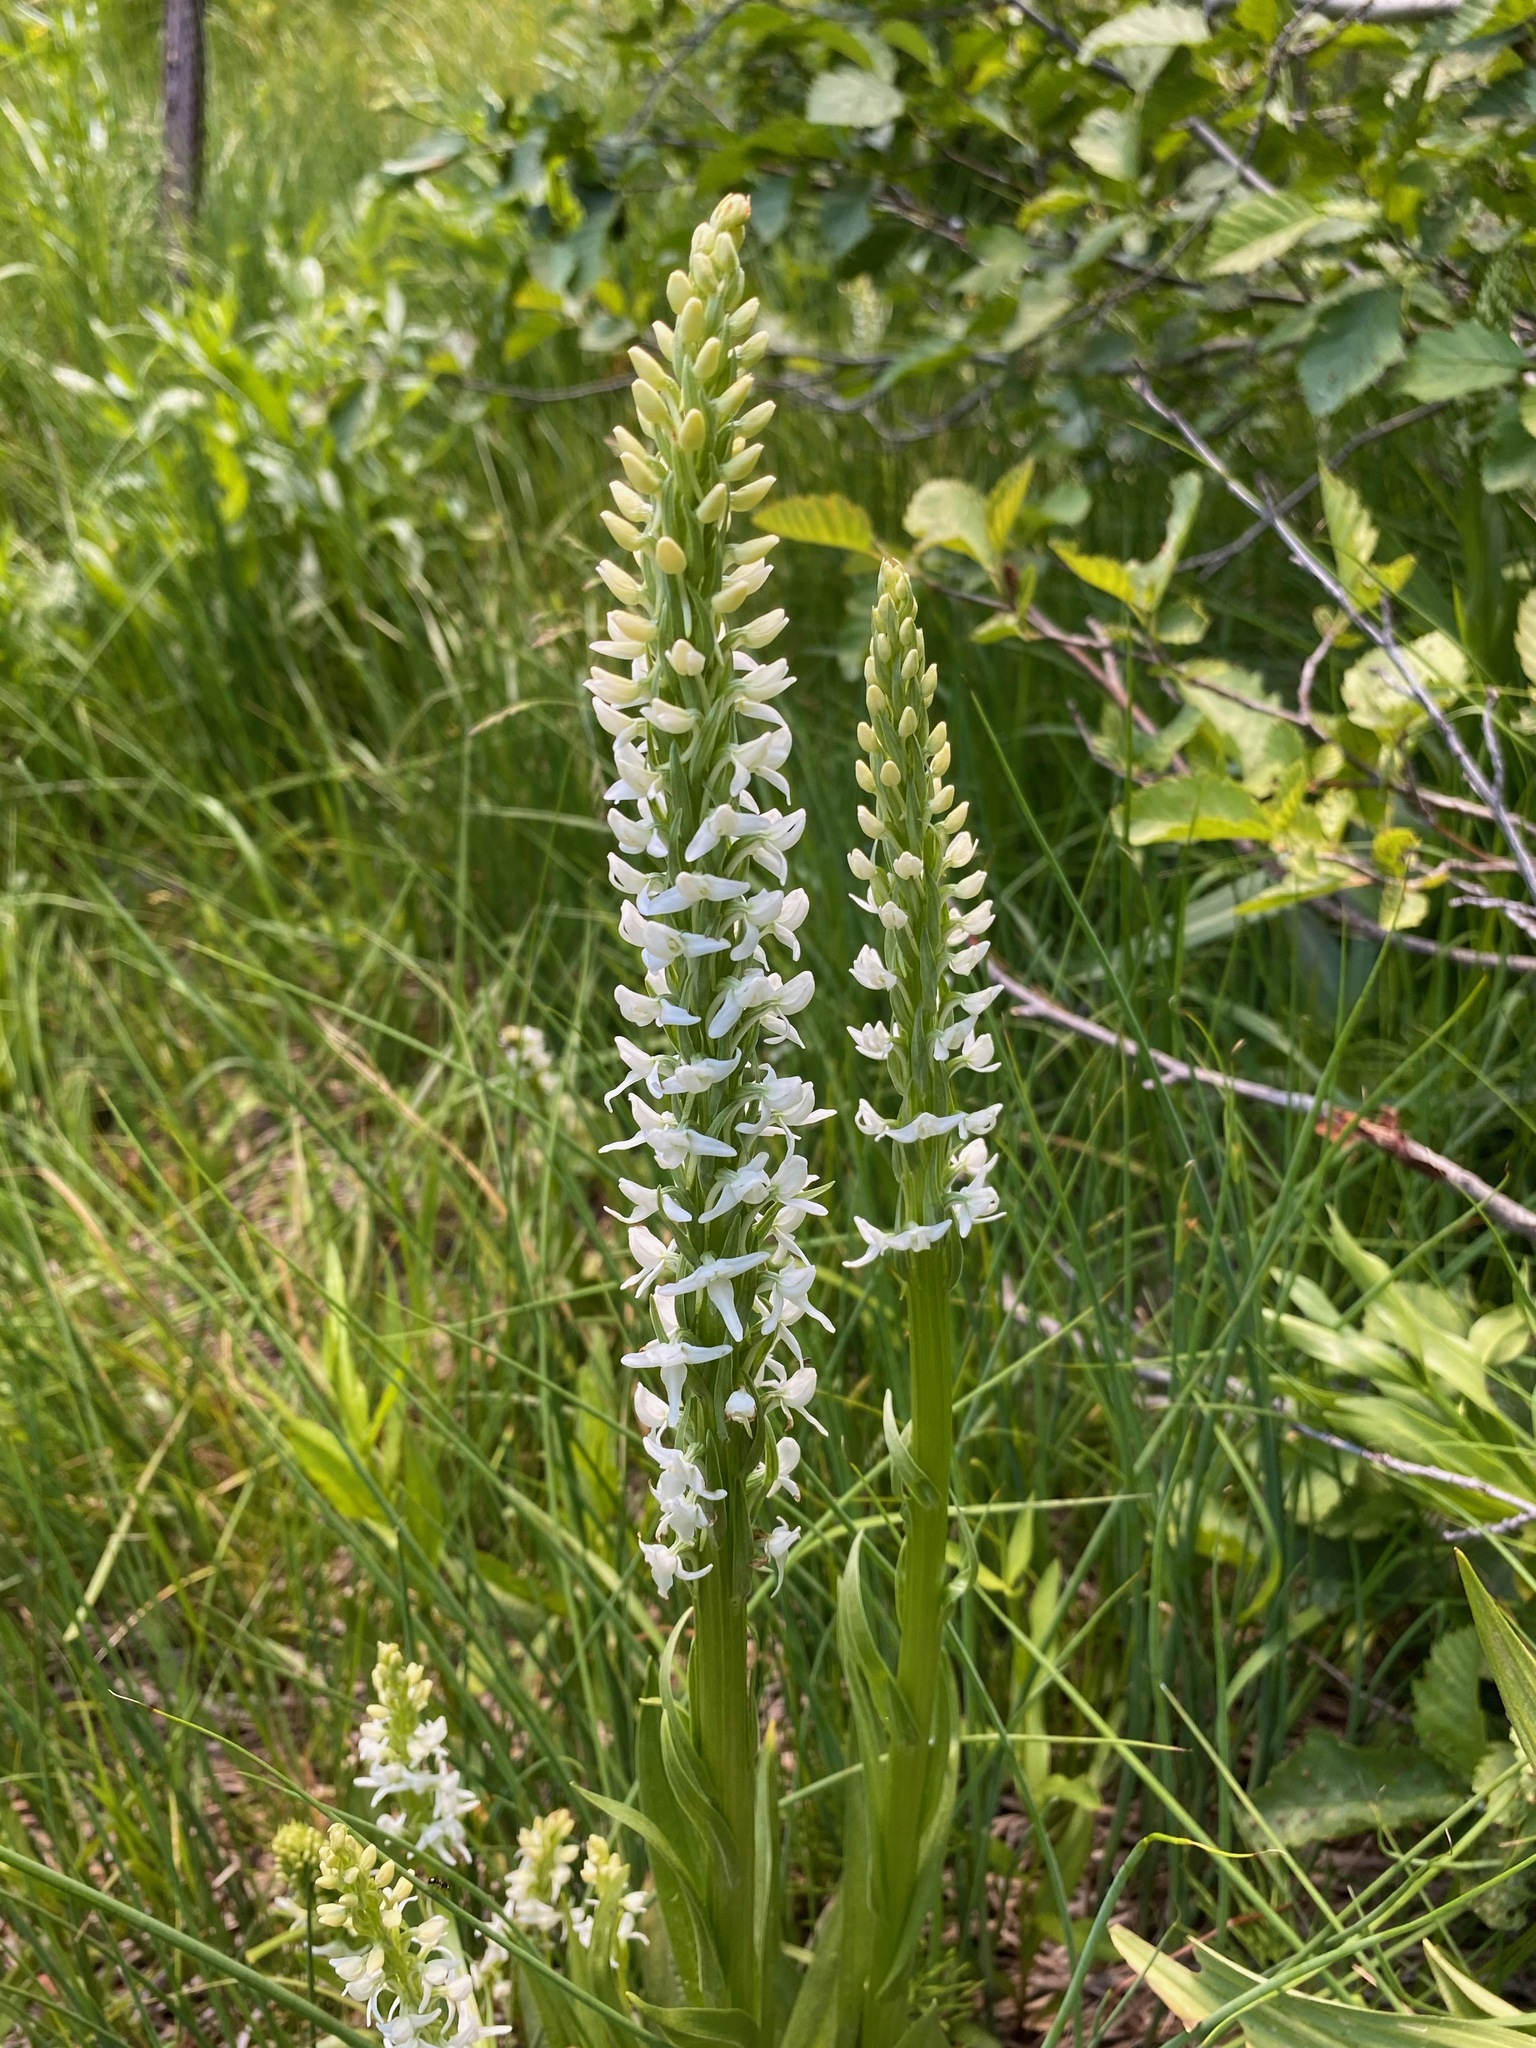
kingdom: Plantae
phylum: Tracheophyta
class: Liliopsida
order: Asparagales
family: Orchidaceae
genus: Platanthera
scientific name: Platanthera dilatata
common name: Bog candles
